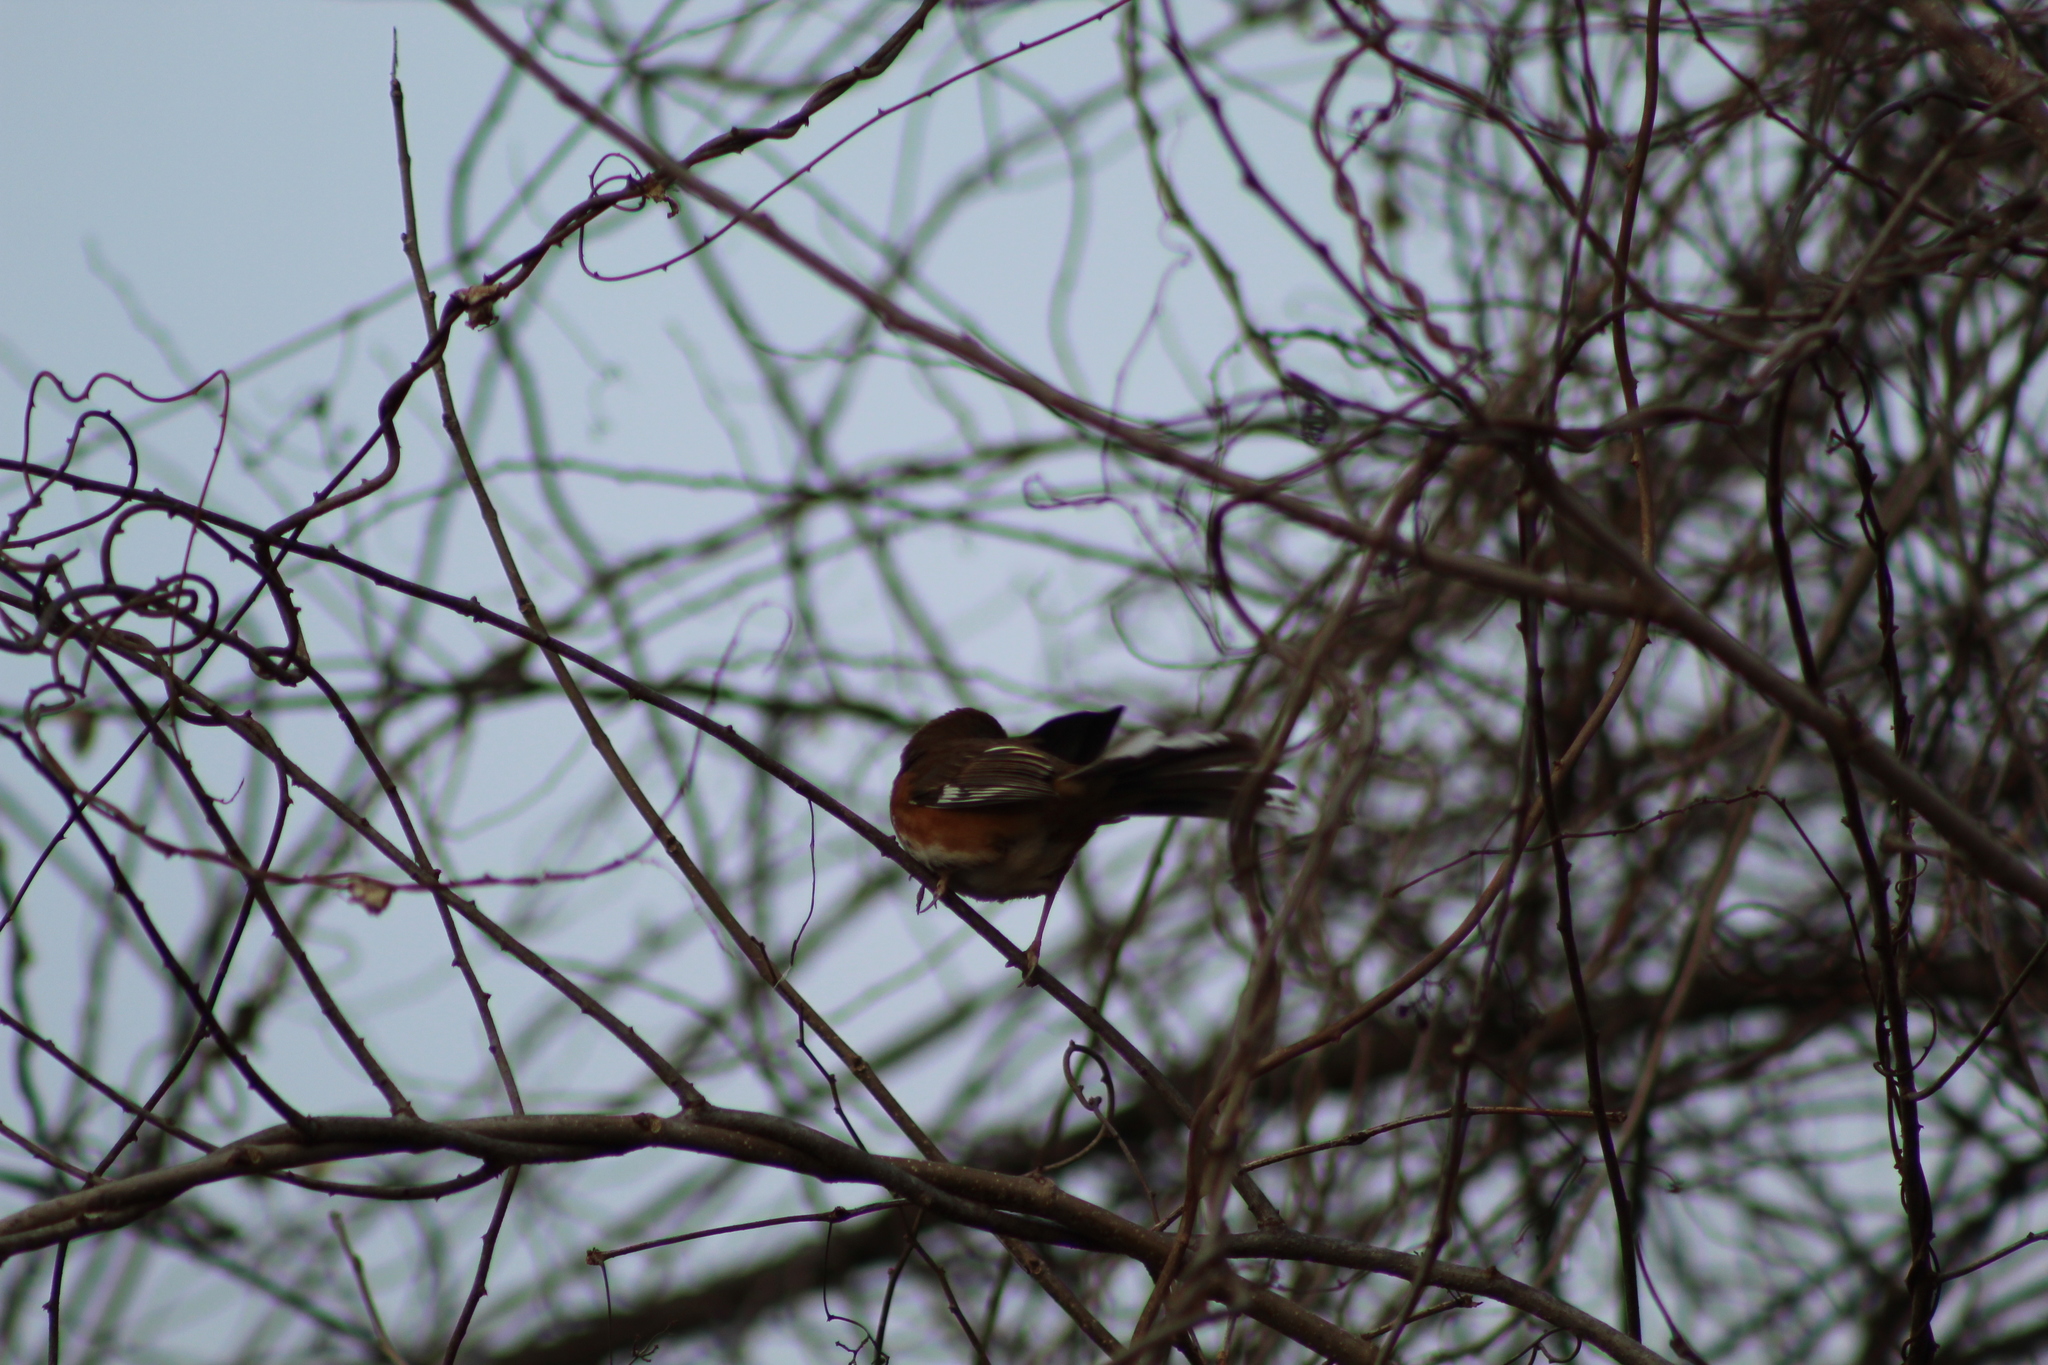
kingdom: Animalia
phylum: Chordata
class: Aves
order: Passeriformes
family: Passerellidae
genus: Pipilo
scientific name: Pipilo erythrophthalmus
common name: Eastern towhee
